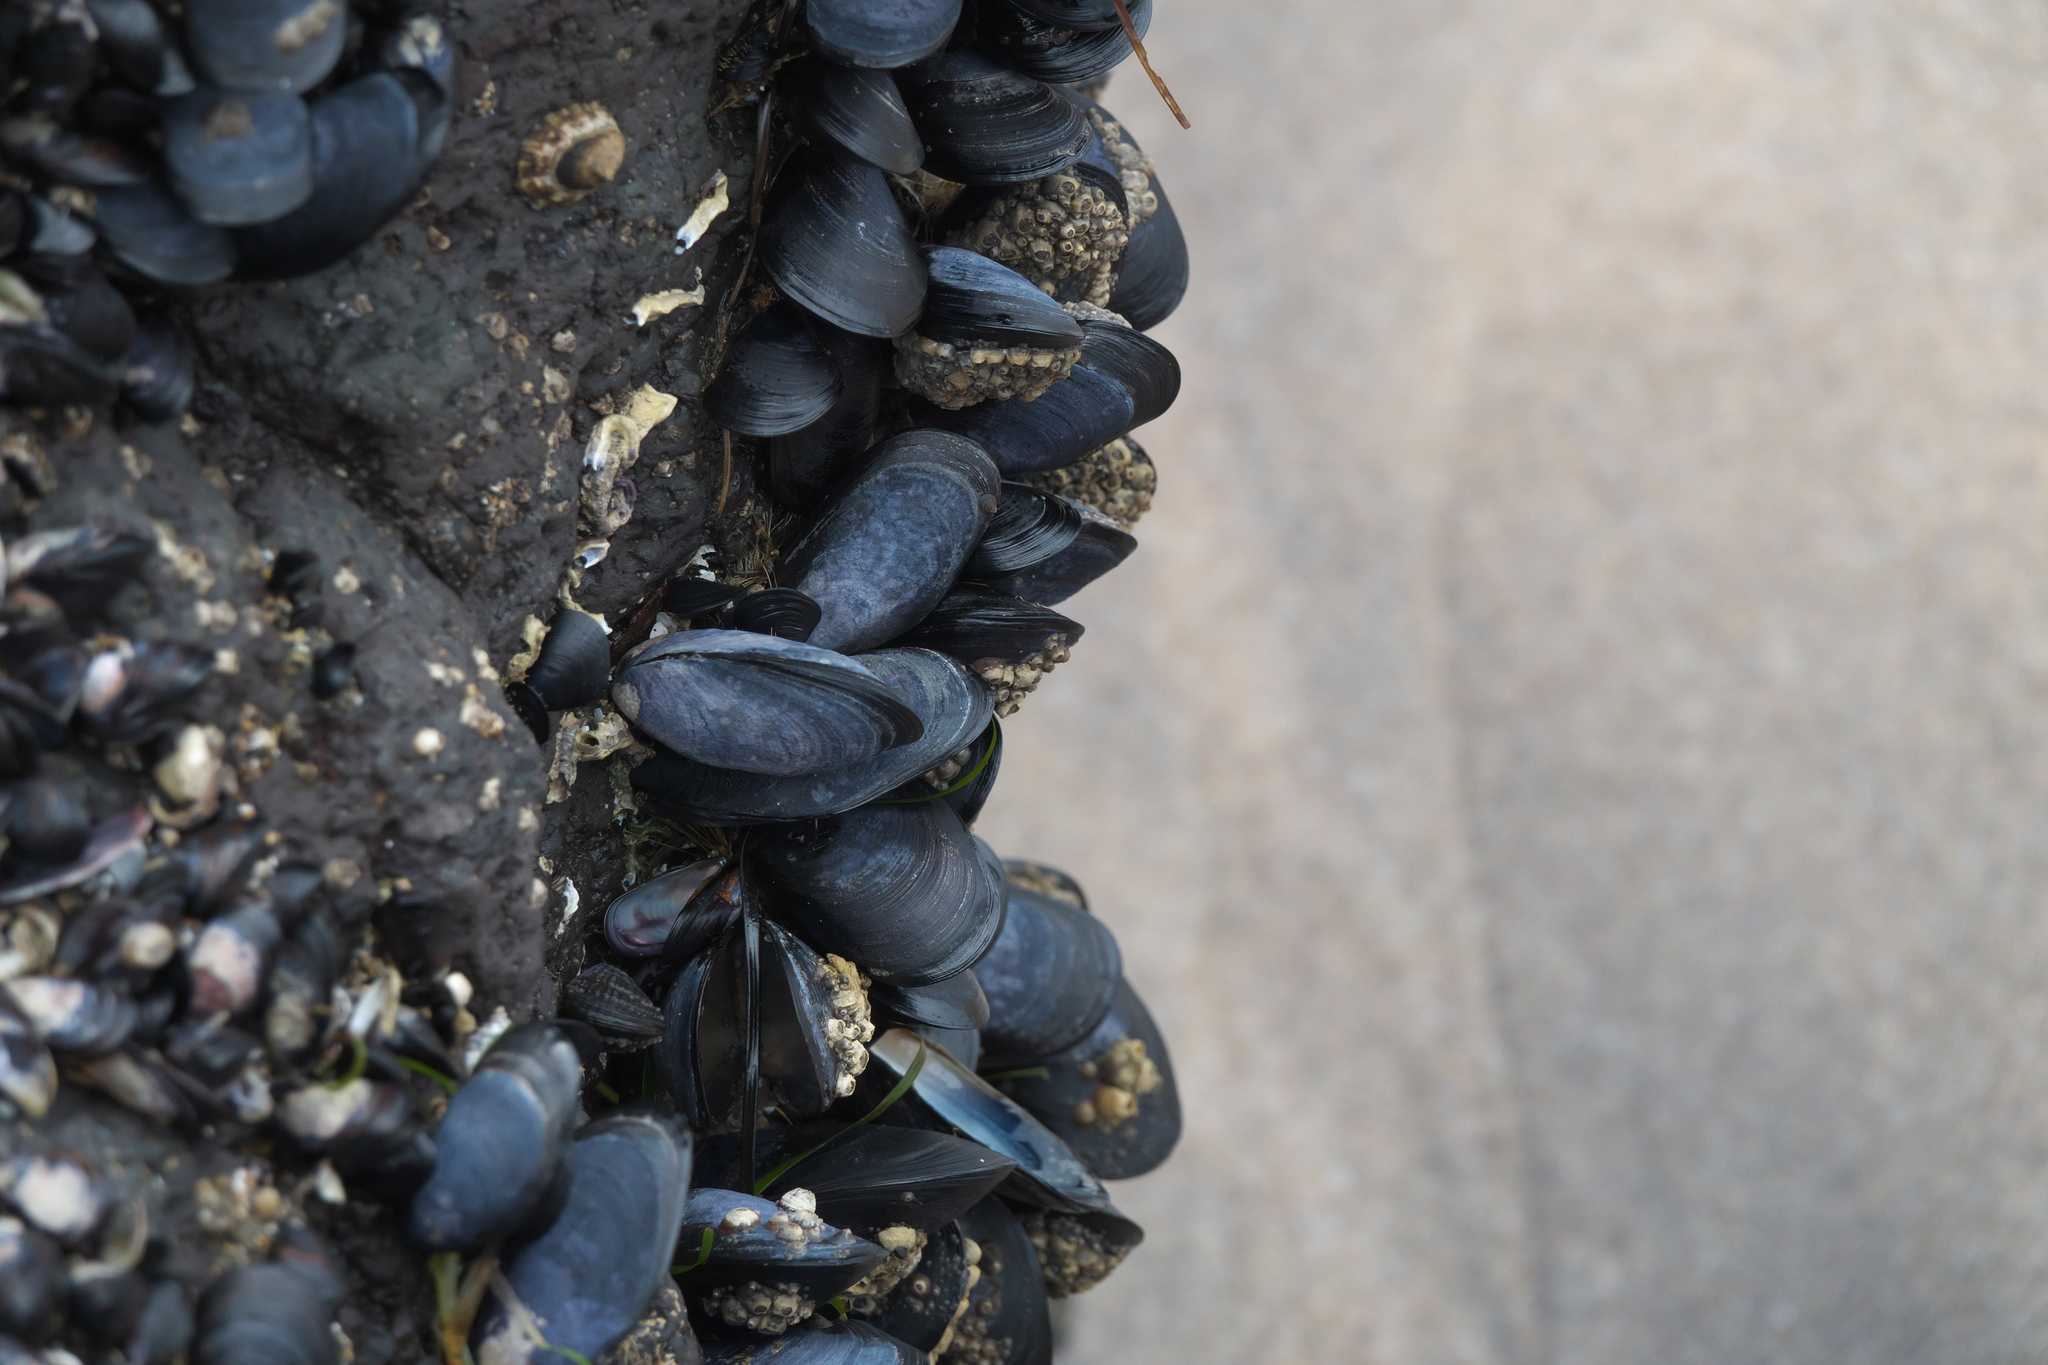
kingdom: Animalia
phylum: Mollusca
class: Bivalvia
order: Mytilida
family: Mytilidae
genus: Mytilus
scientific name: Mytilus planulatus
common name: Australian mussel
